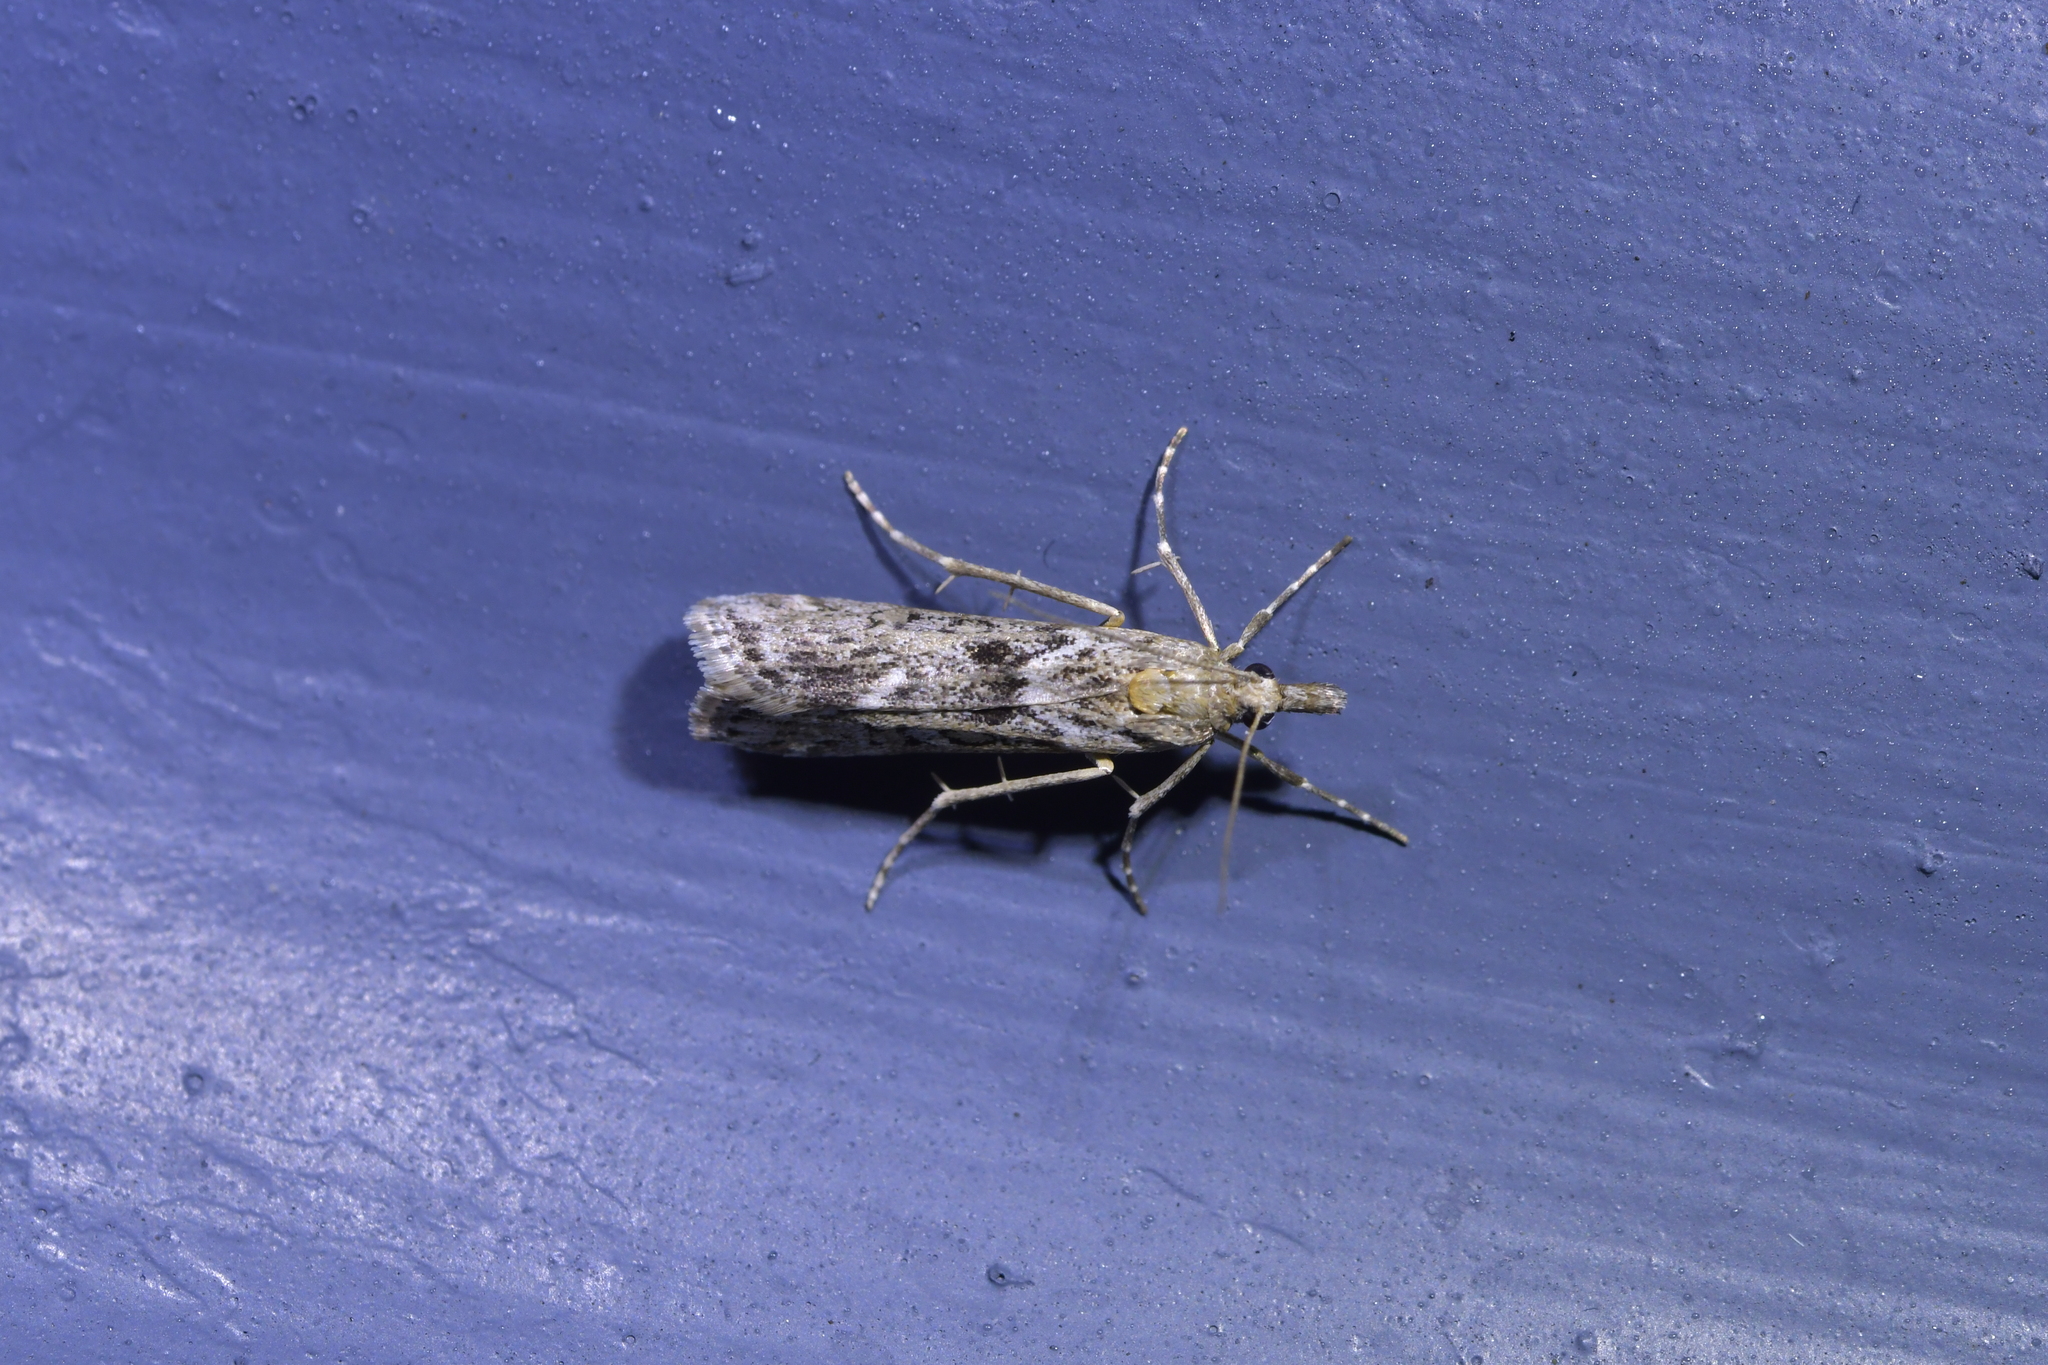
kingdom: Animalia
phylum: Arthropoda
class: Insecta
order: Lepidoptera
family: Crambidae
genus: Eudonia
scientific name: Eudonia leptalea
